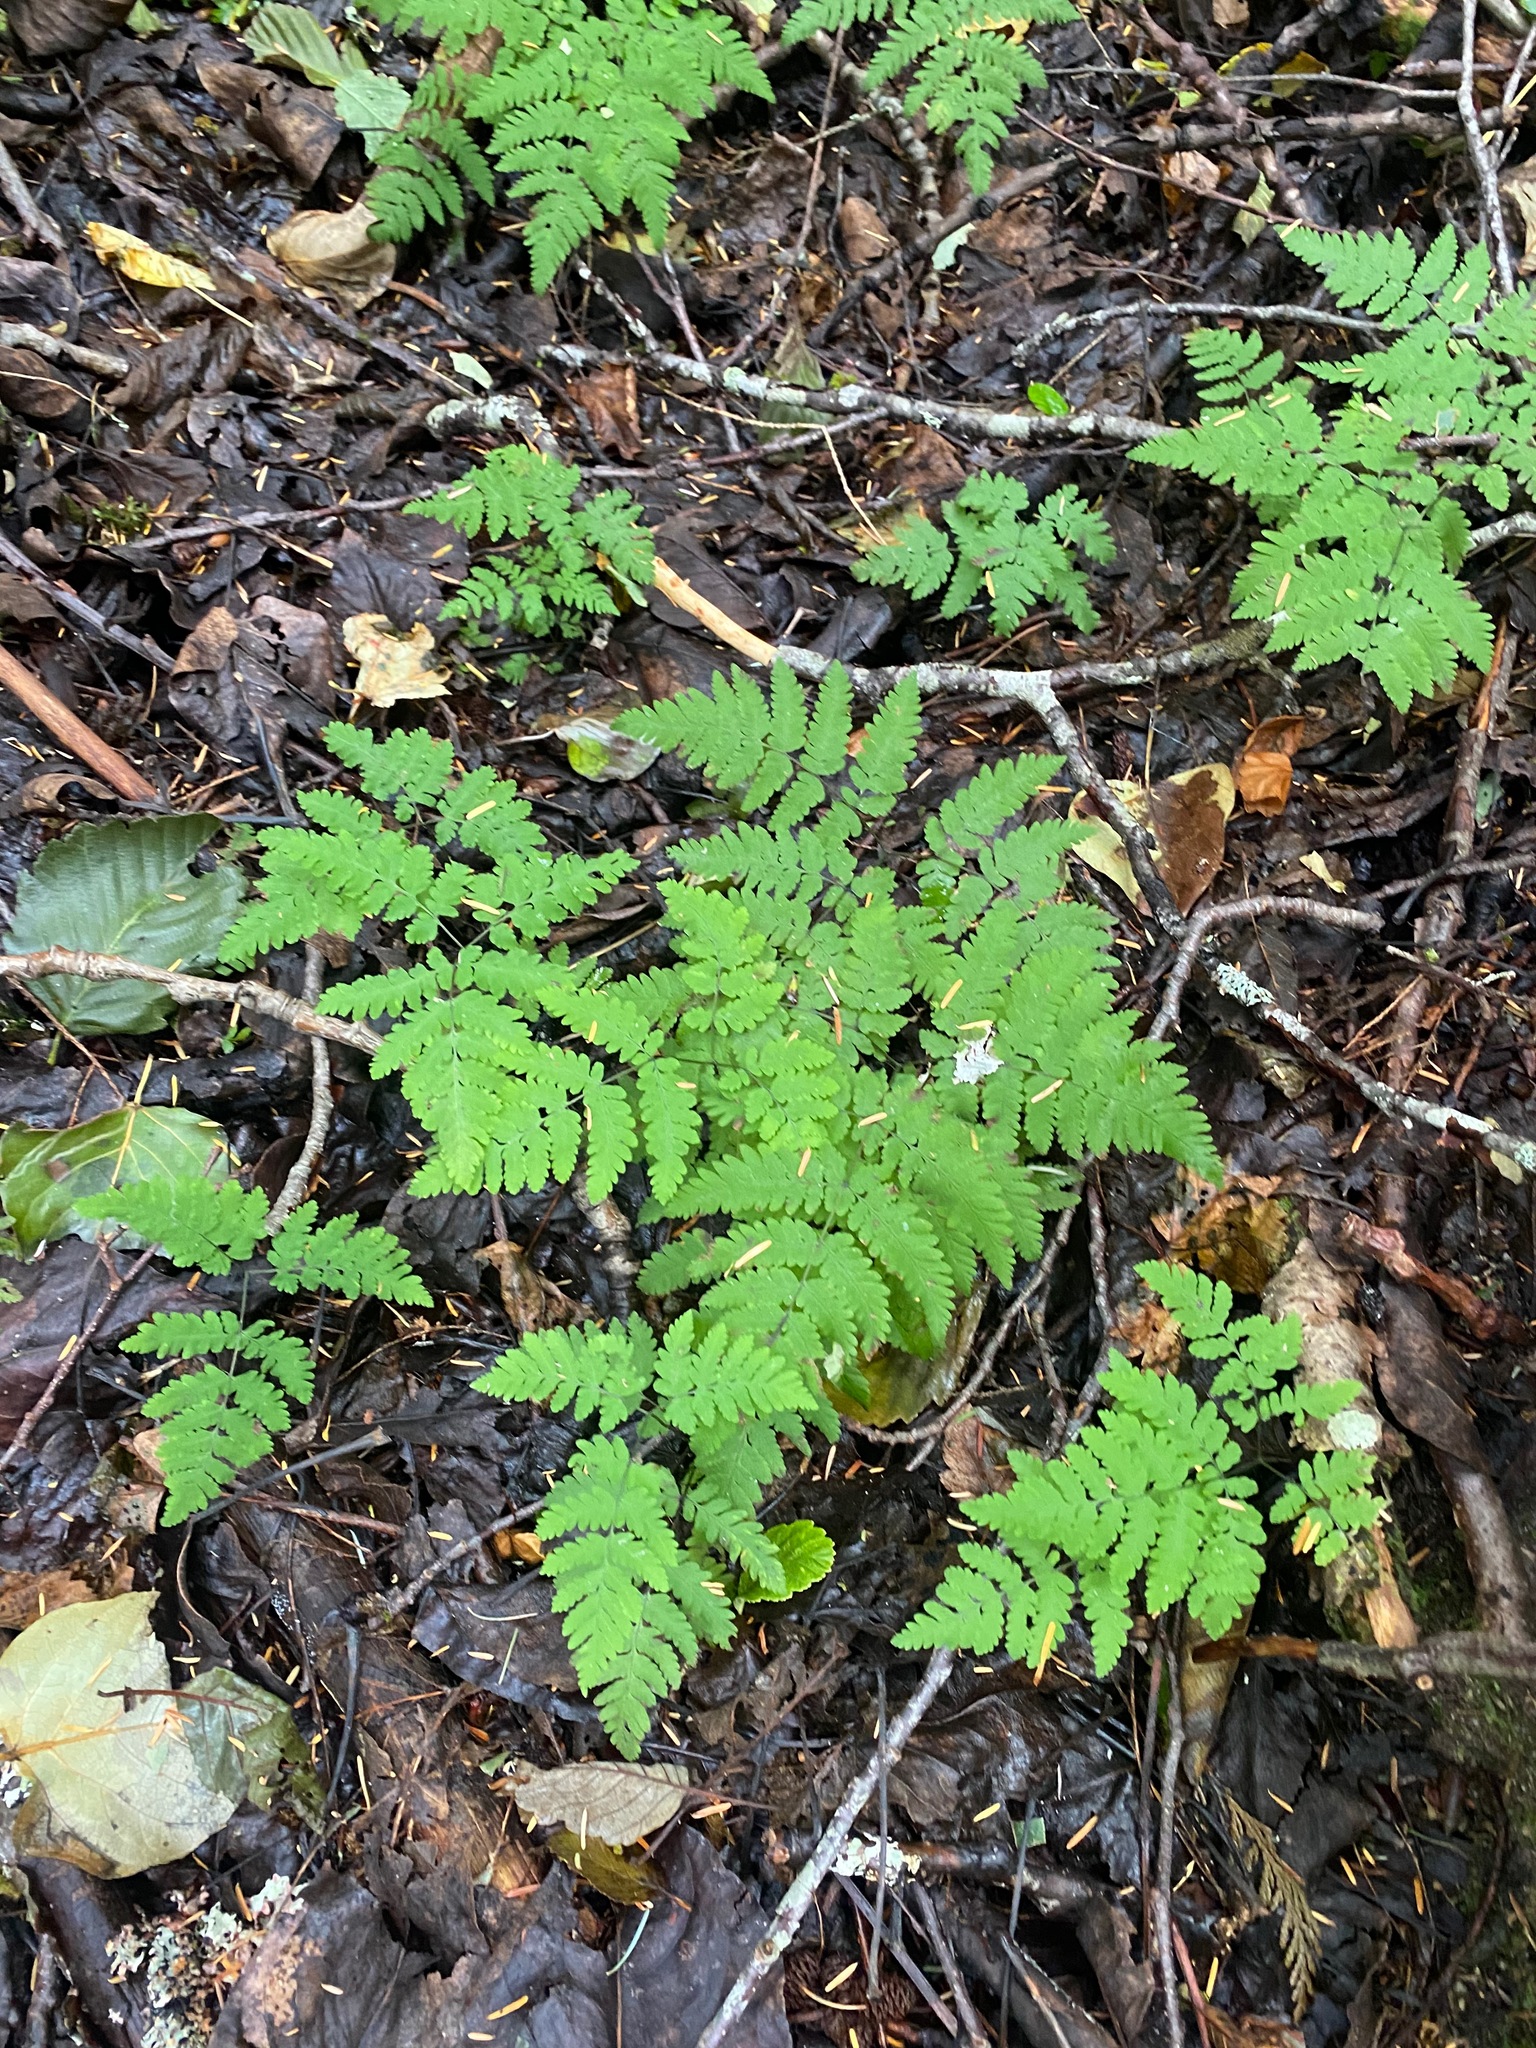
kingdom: Plantae
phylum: Tracheophyta
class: Polypodiopsida
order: Polypodiales
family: Cystopteridaceae
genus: Gymnocarpium
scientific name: Gymnocarpium dryopteris
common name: Oak fern
